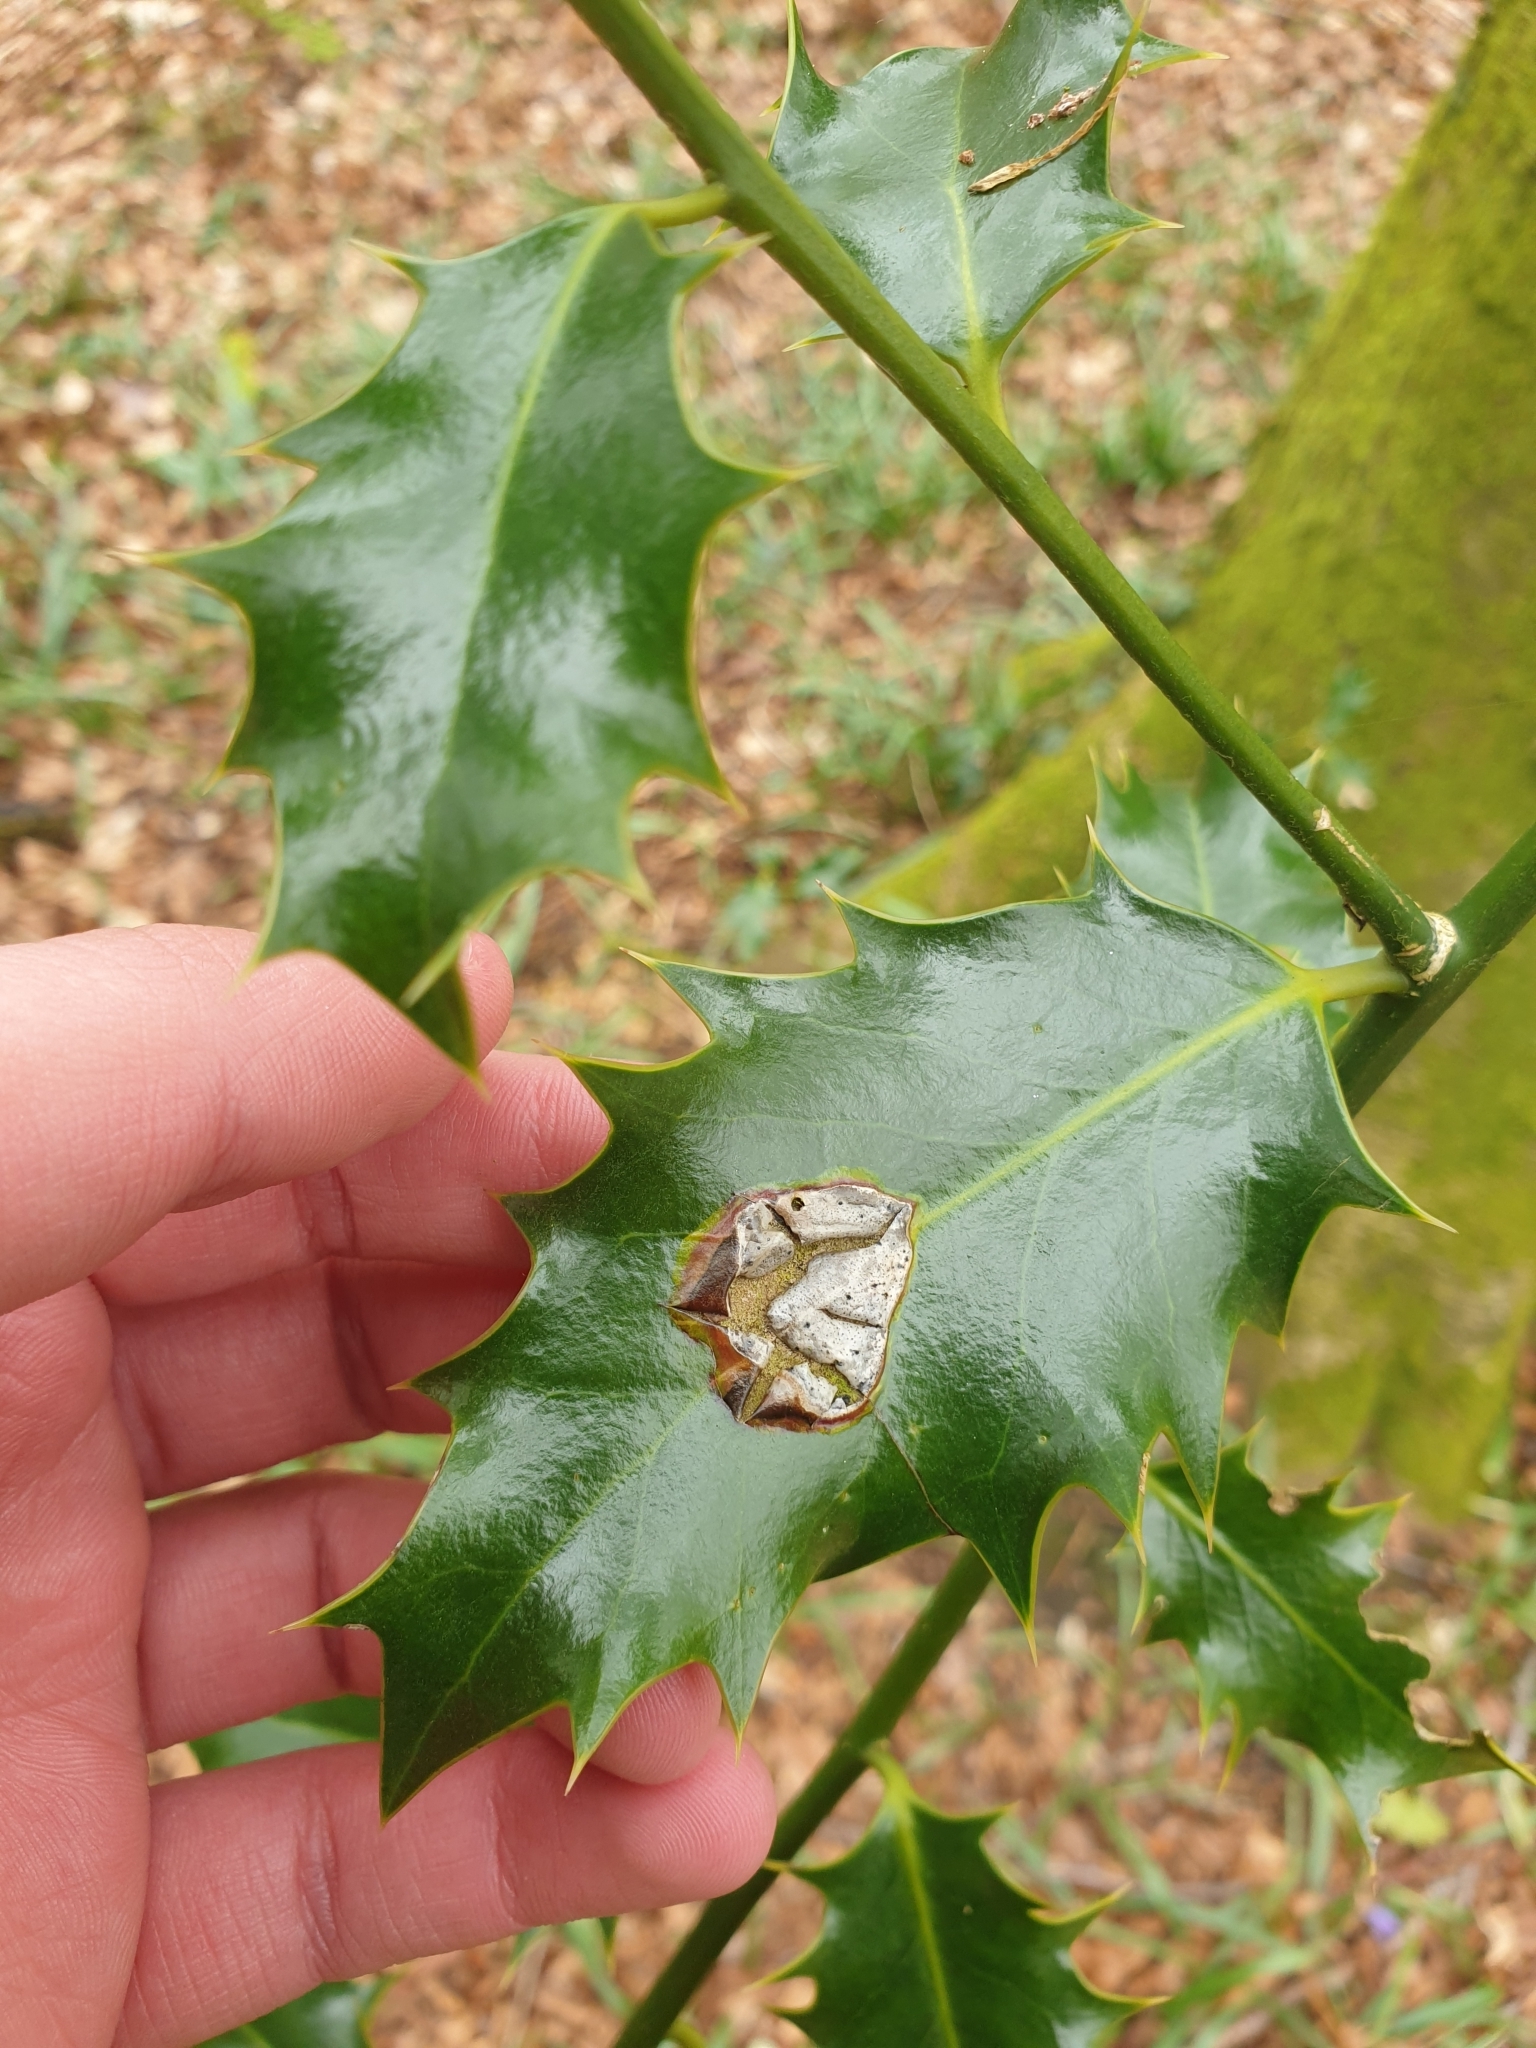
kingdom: Animalia
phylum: Arthropoda
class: Insecta
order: Diptera
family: Agromyzidae
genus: Phytomyza
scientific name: Phytomyza ilicis
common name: Holly leafminer
